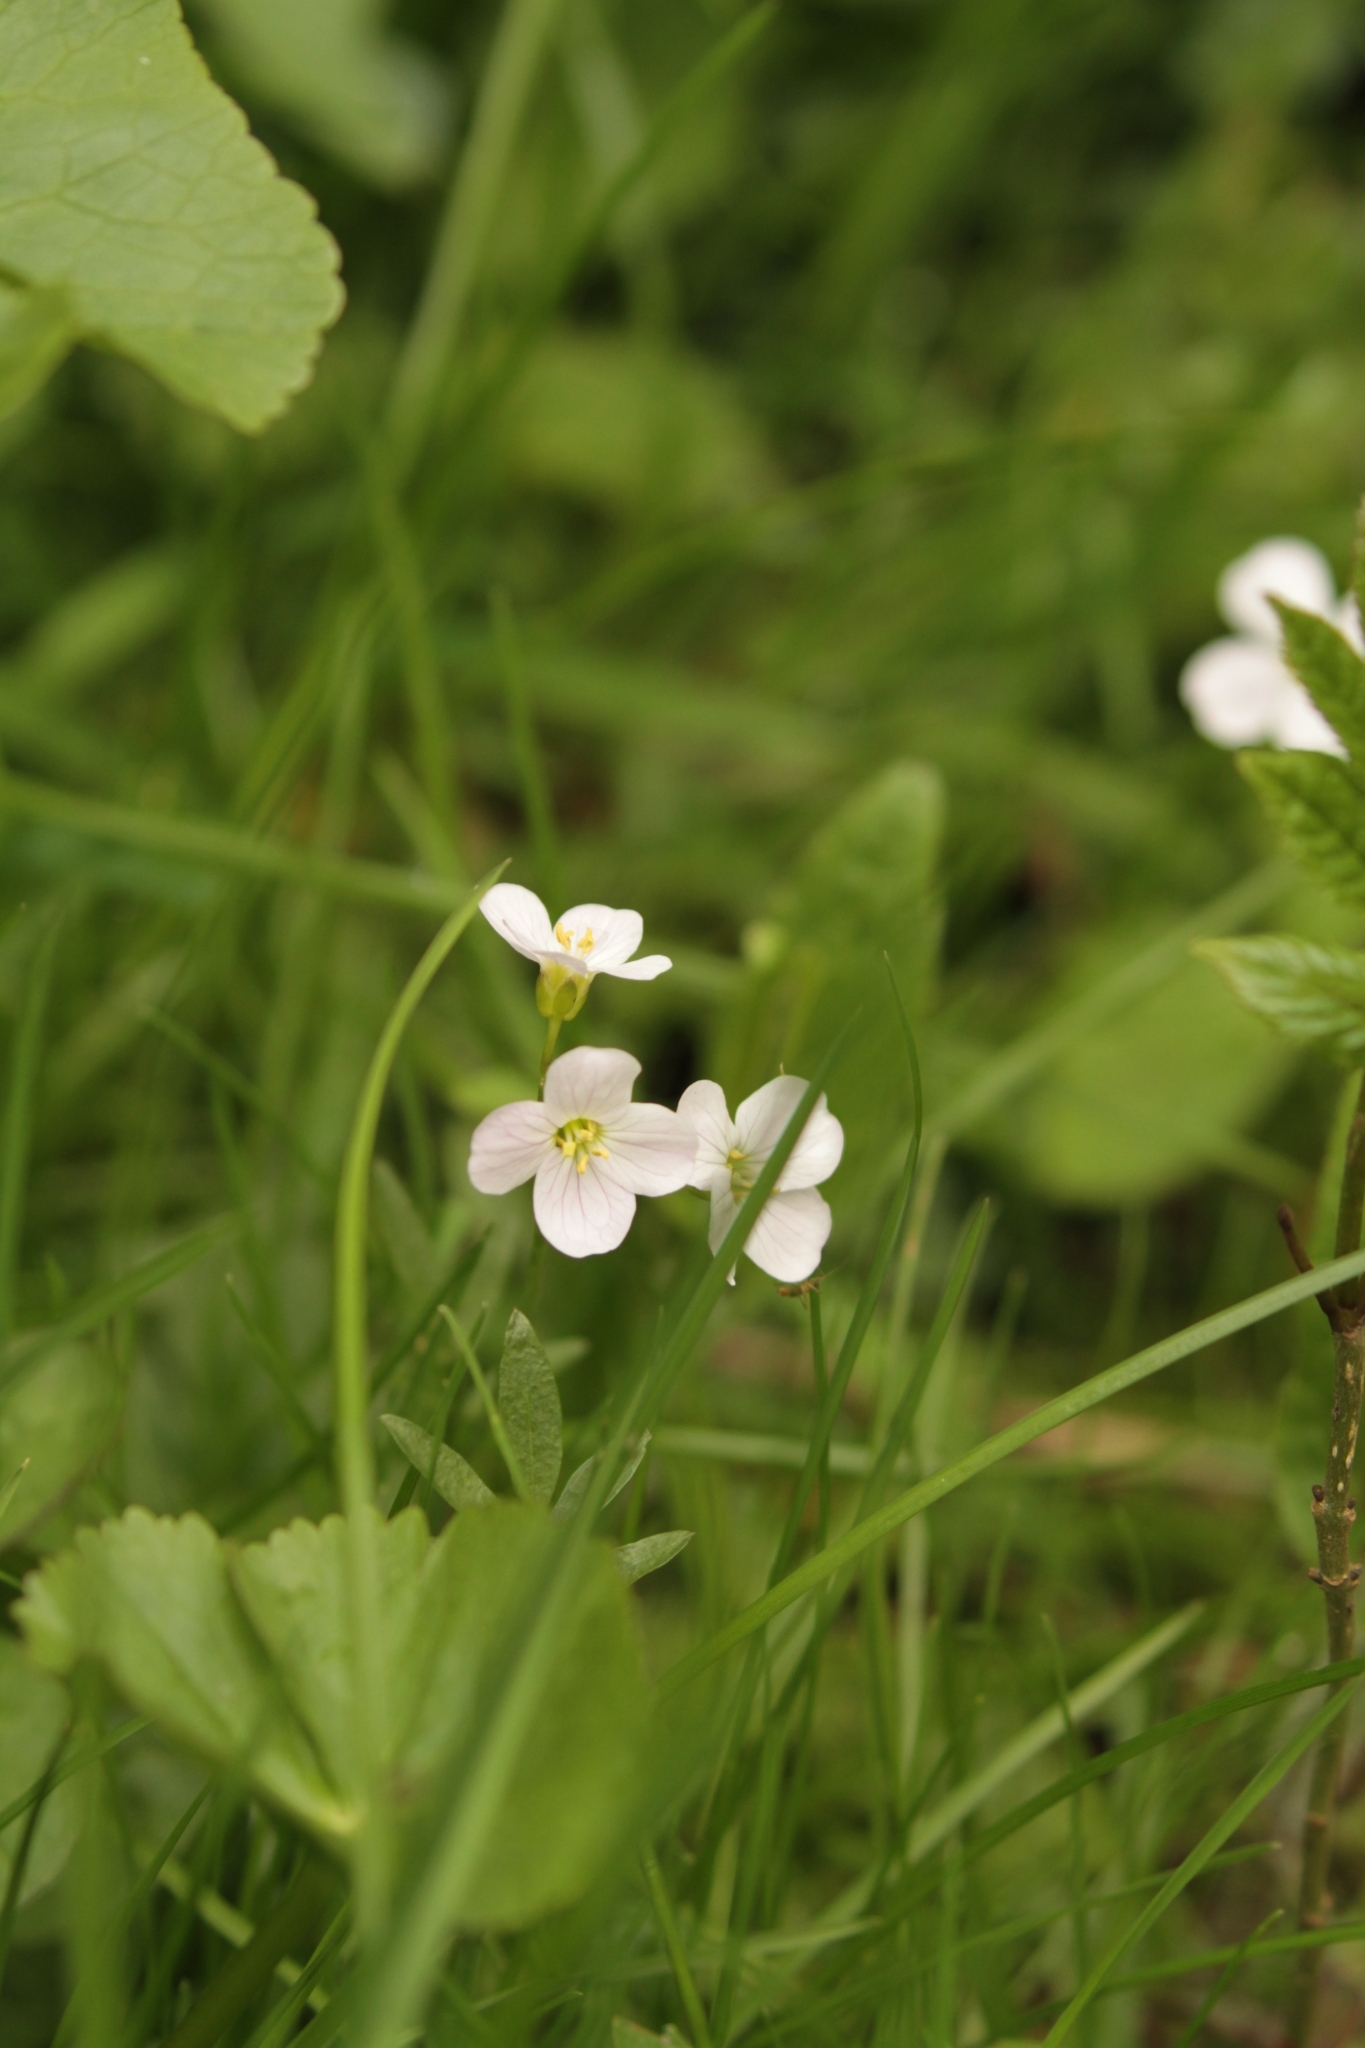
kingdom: Plantae
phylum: Tracheophyta
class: Magnoliopsida
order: Brassicales
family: Brassicaceae
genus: Cardamine
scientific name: Cardamine pratensis
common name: Cuckoo flower
